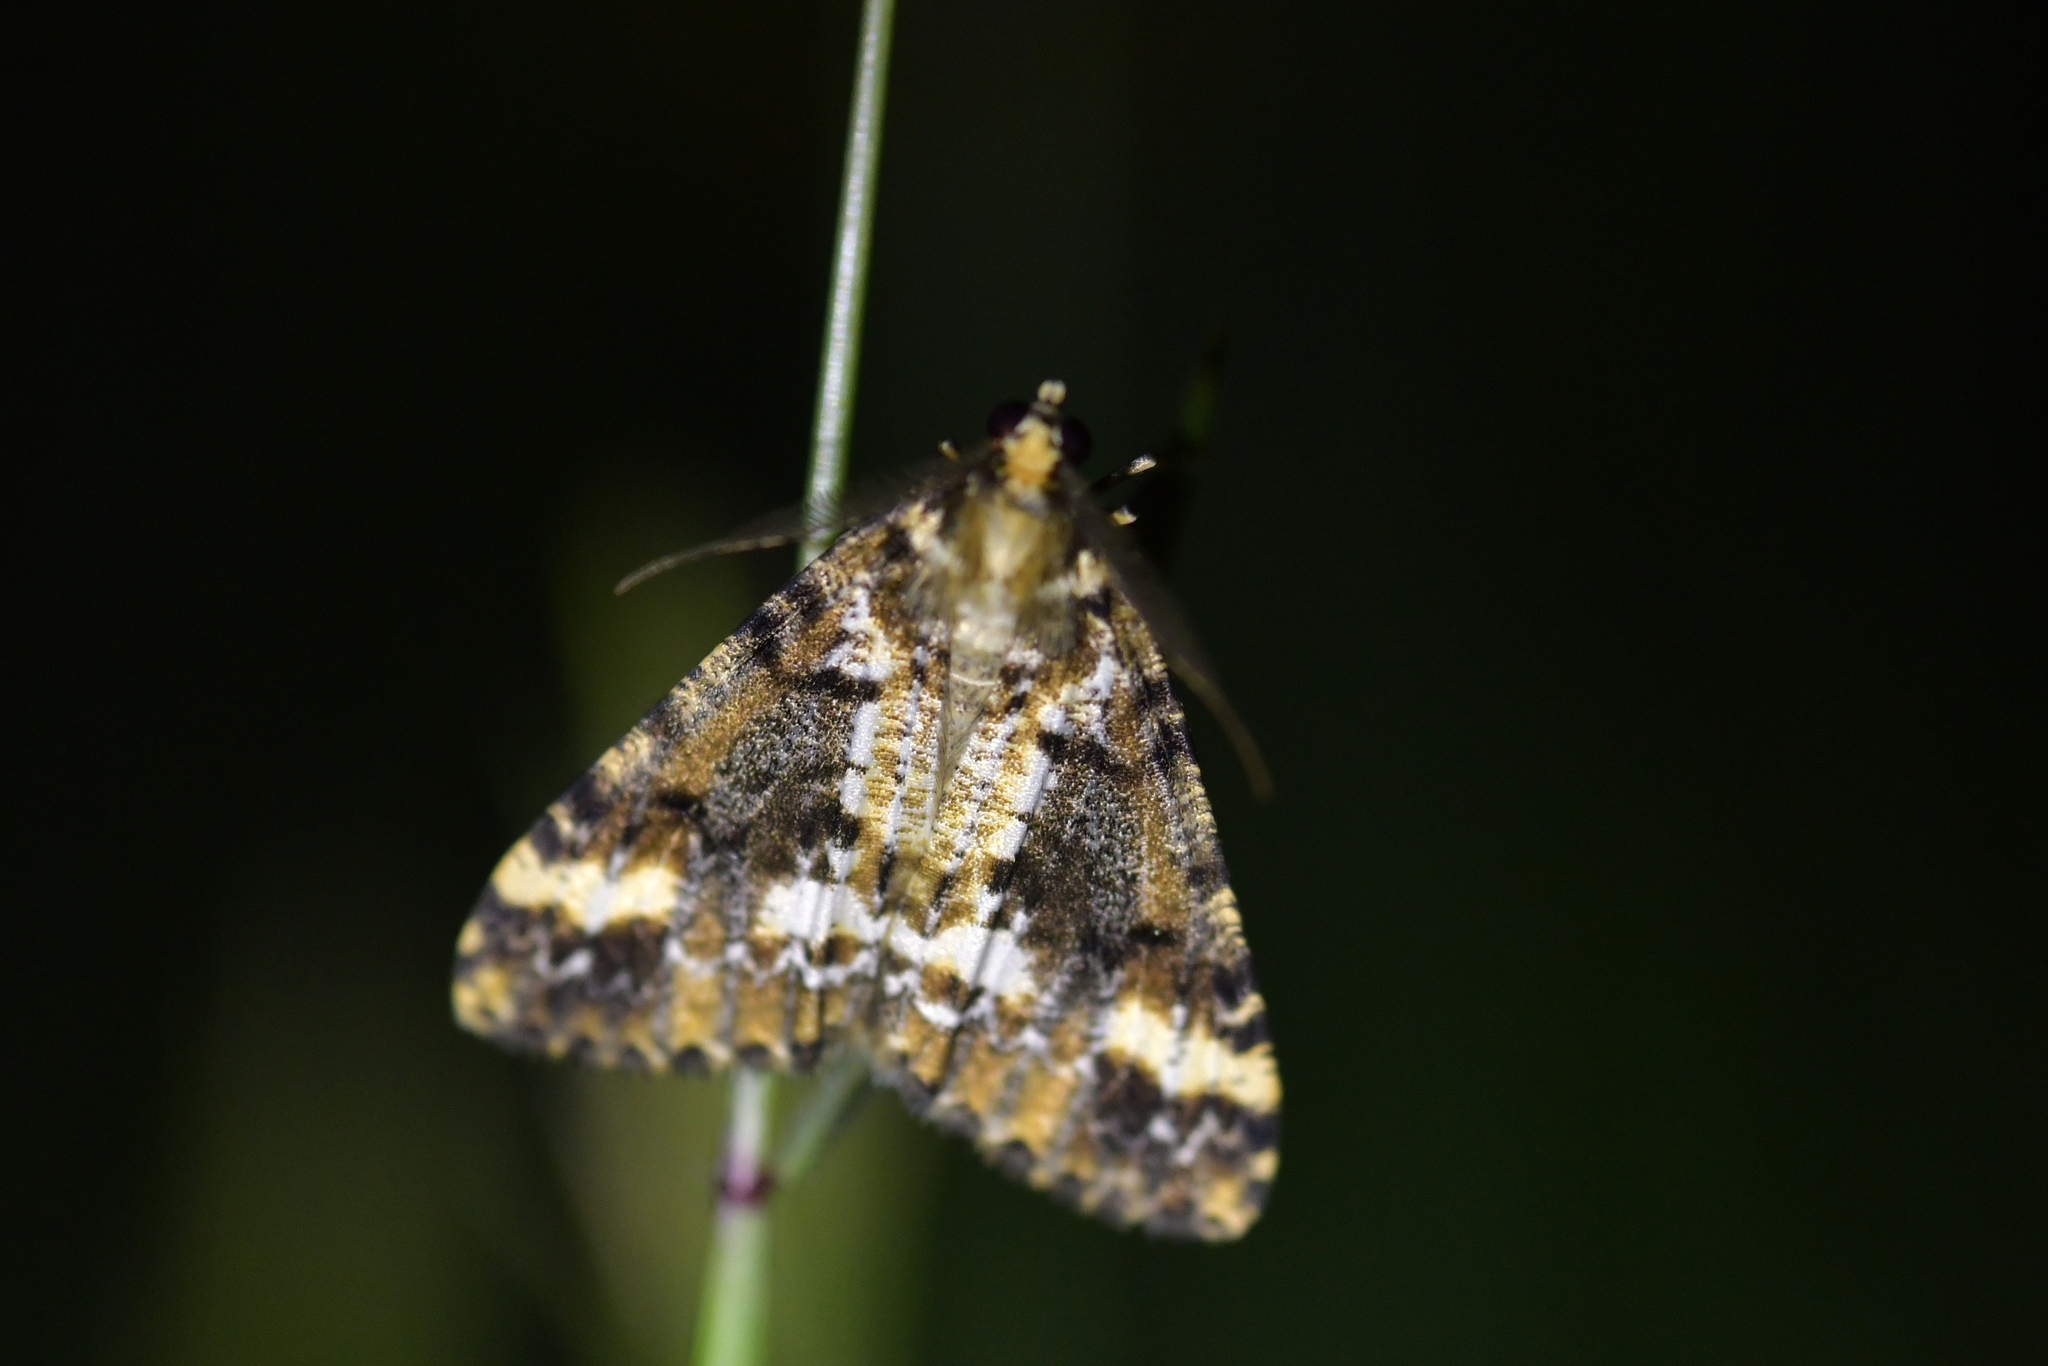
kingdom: Animalia
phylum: Arthropoda
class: Insecta
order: Lepidoptera
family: Geometridae
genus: Pseudocoremia
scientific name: Pseudocoremia leucelaea
